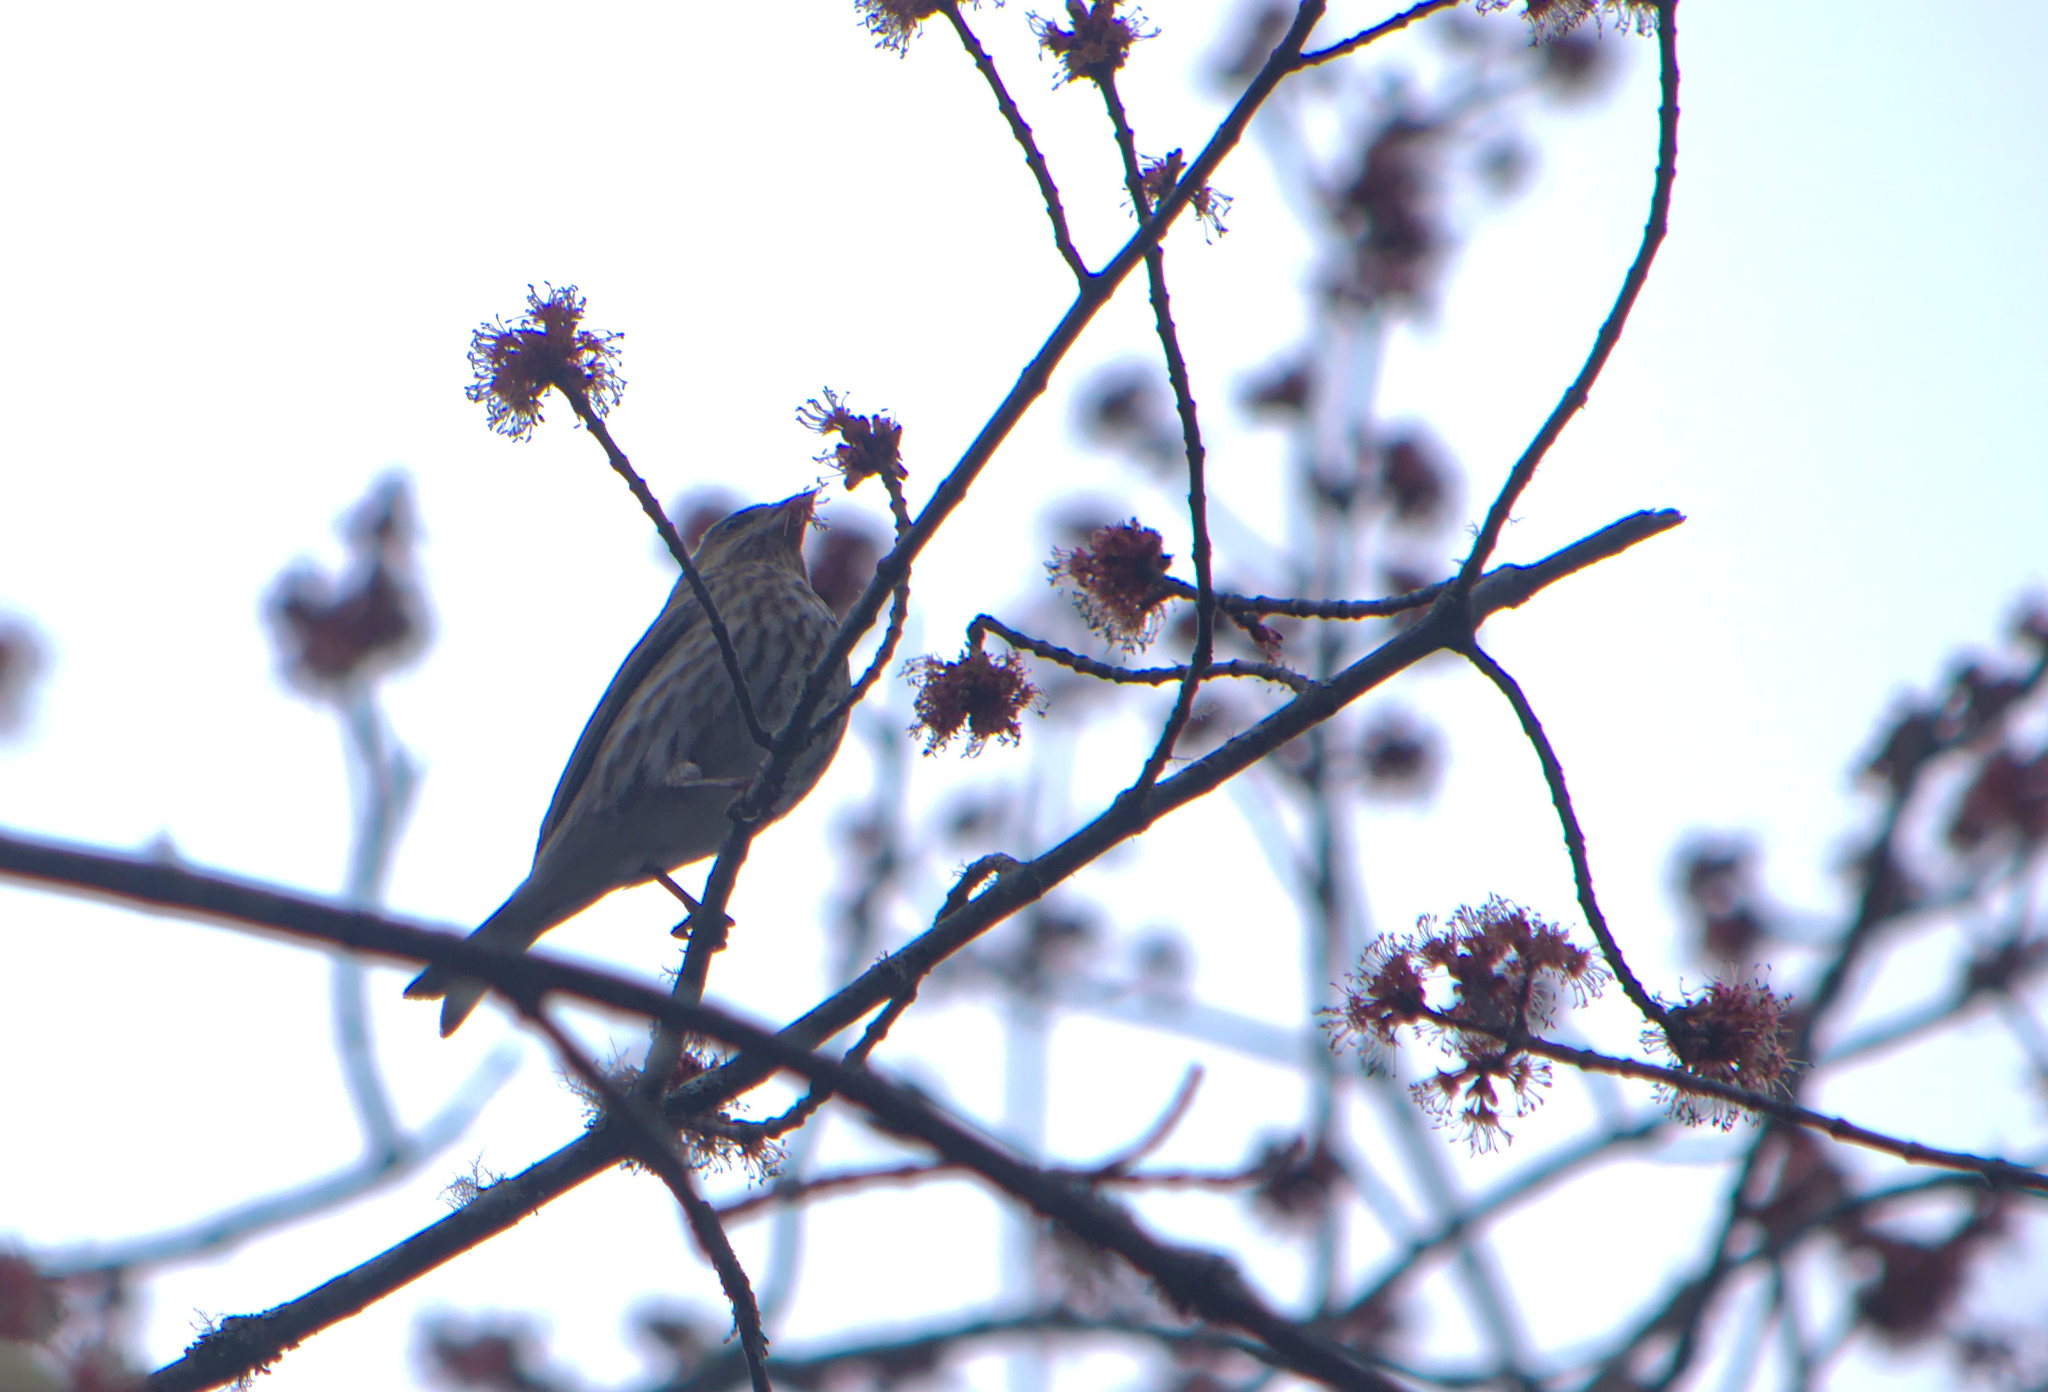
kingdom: Animalia
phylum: Chordata
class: Aves
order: Passeriformes
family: Fringillidae
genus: Haemorhous
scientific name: Haemorhous purpureus
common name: Purple finch
